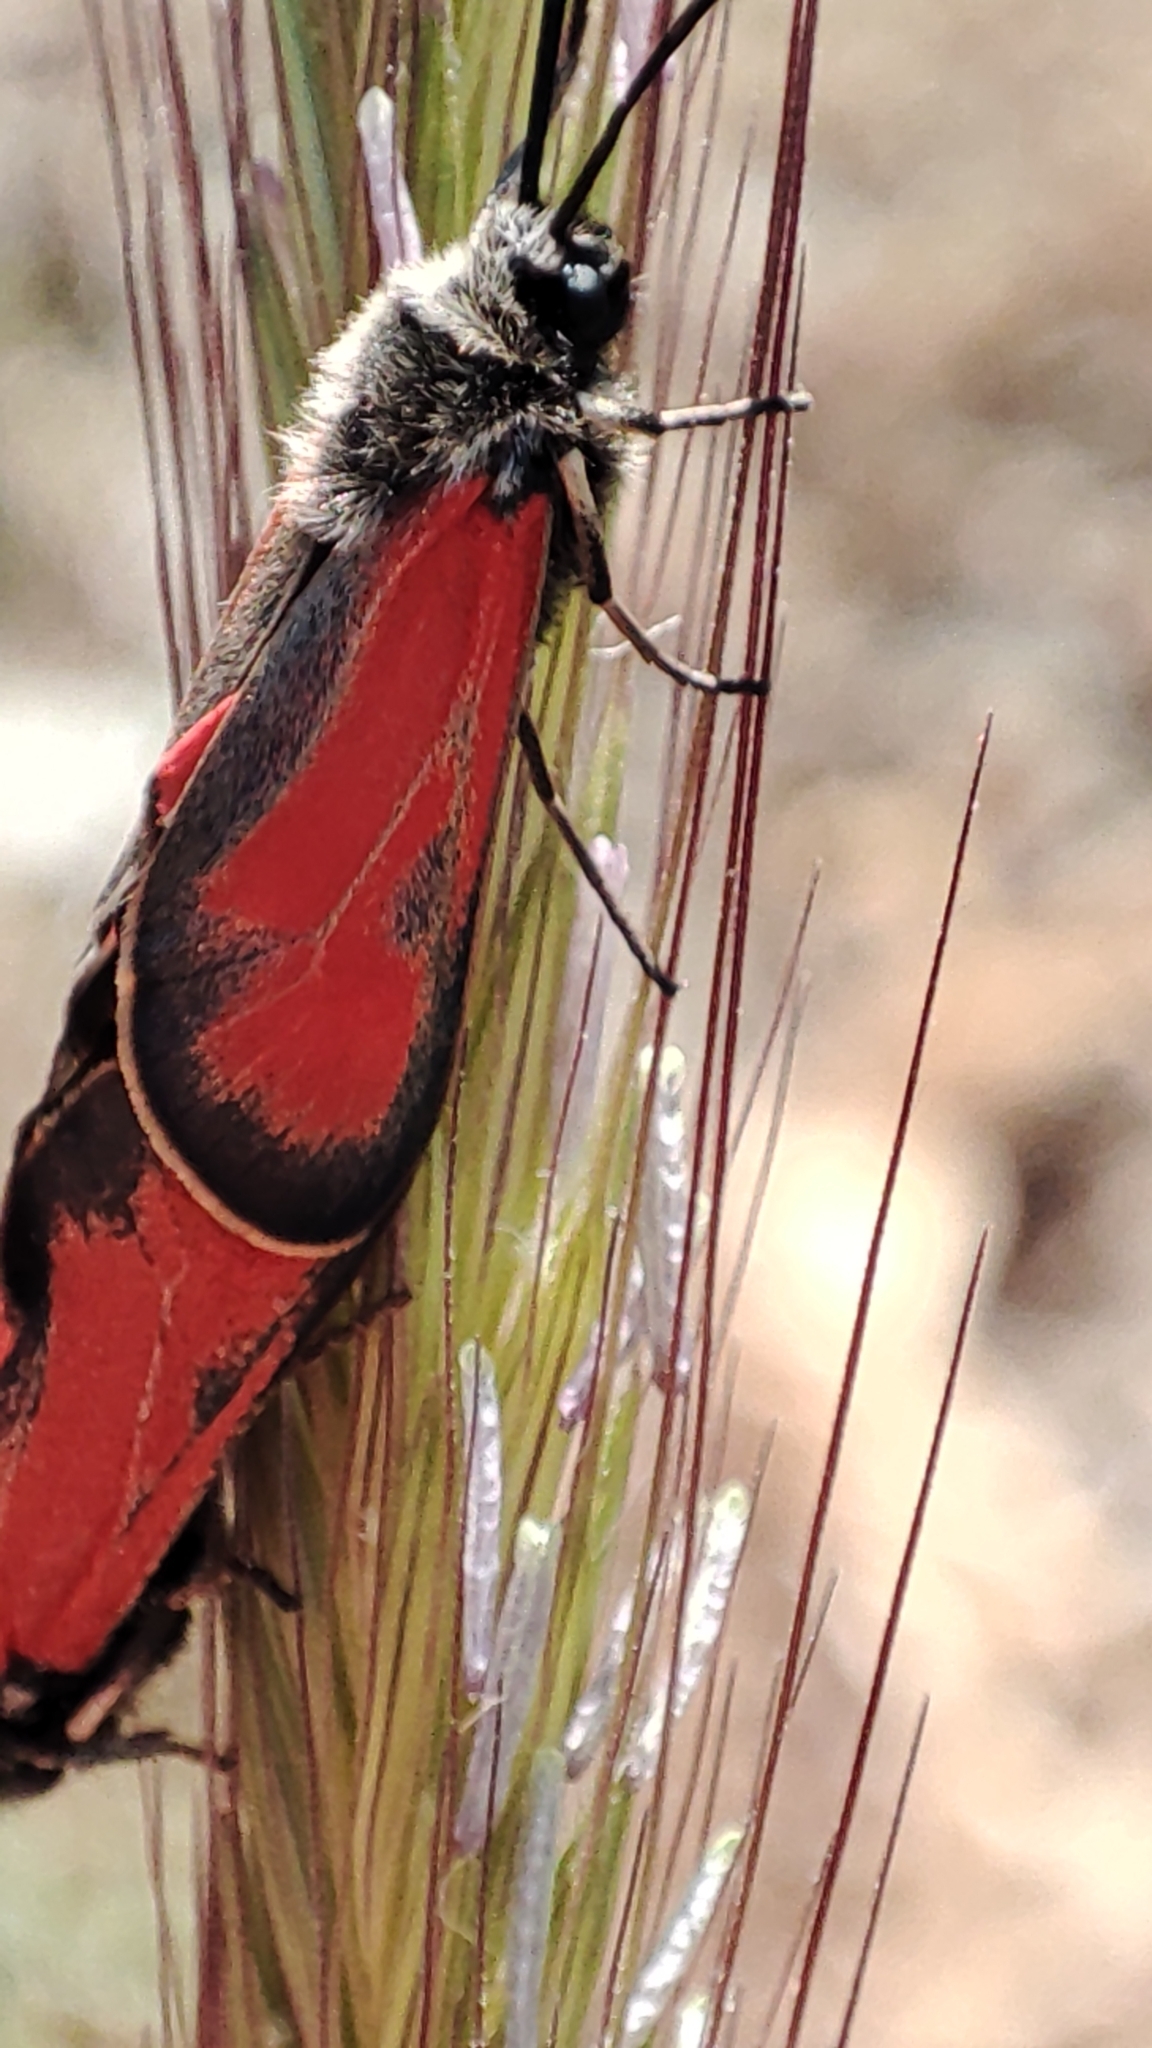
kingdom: Animalia
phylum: Arthropoda
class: Insecta
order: Lepidoptera
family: Zygaenidae
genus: Zygaena
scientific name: Zygaena punctum
